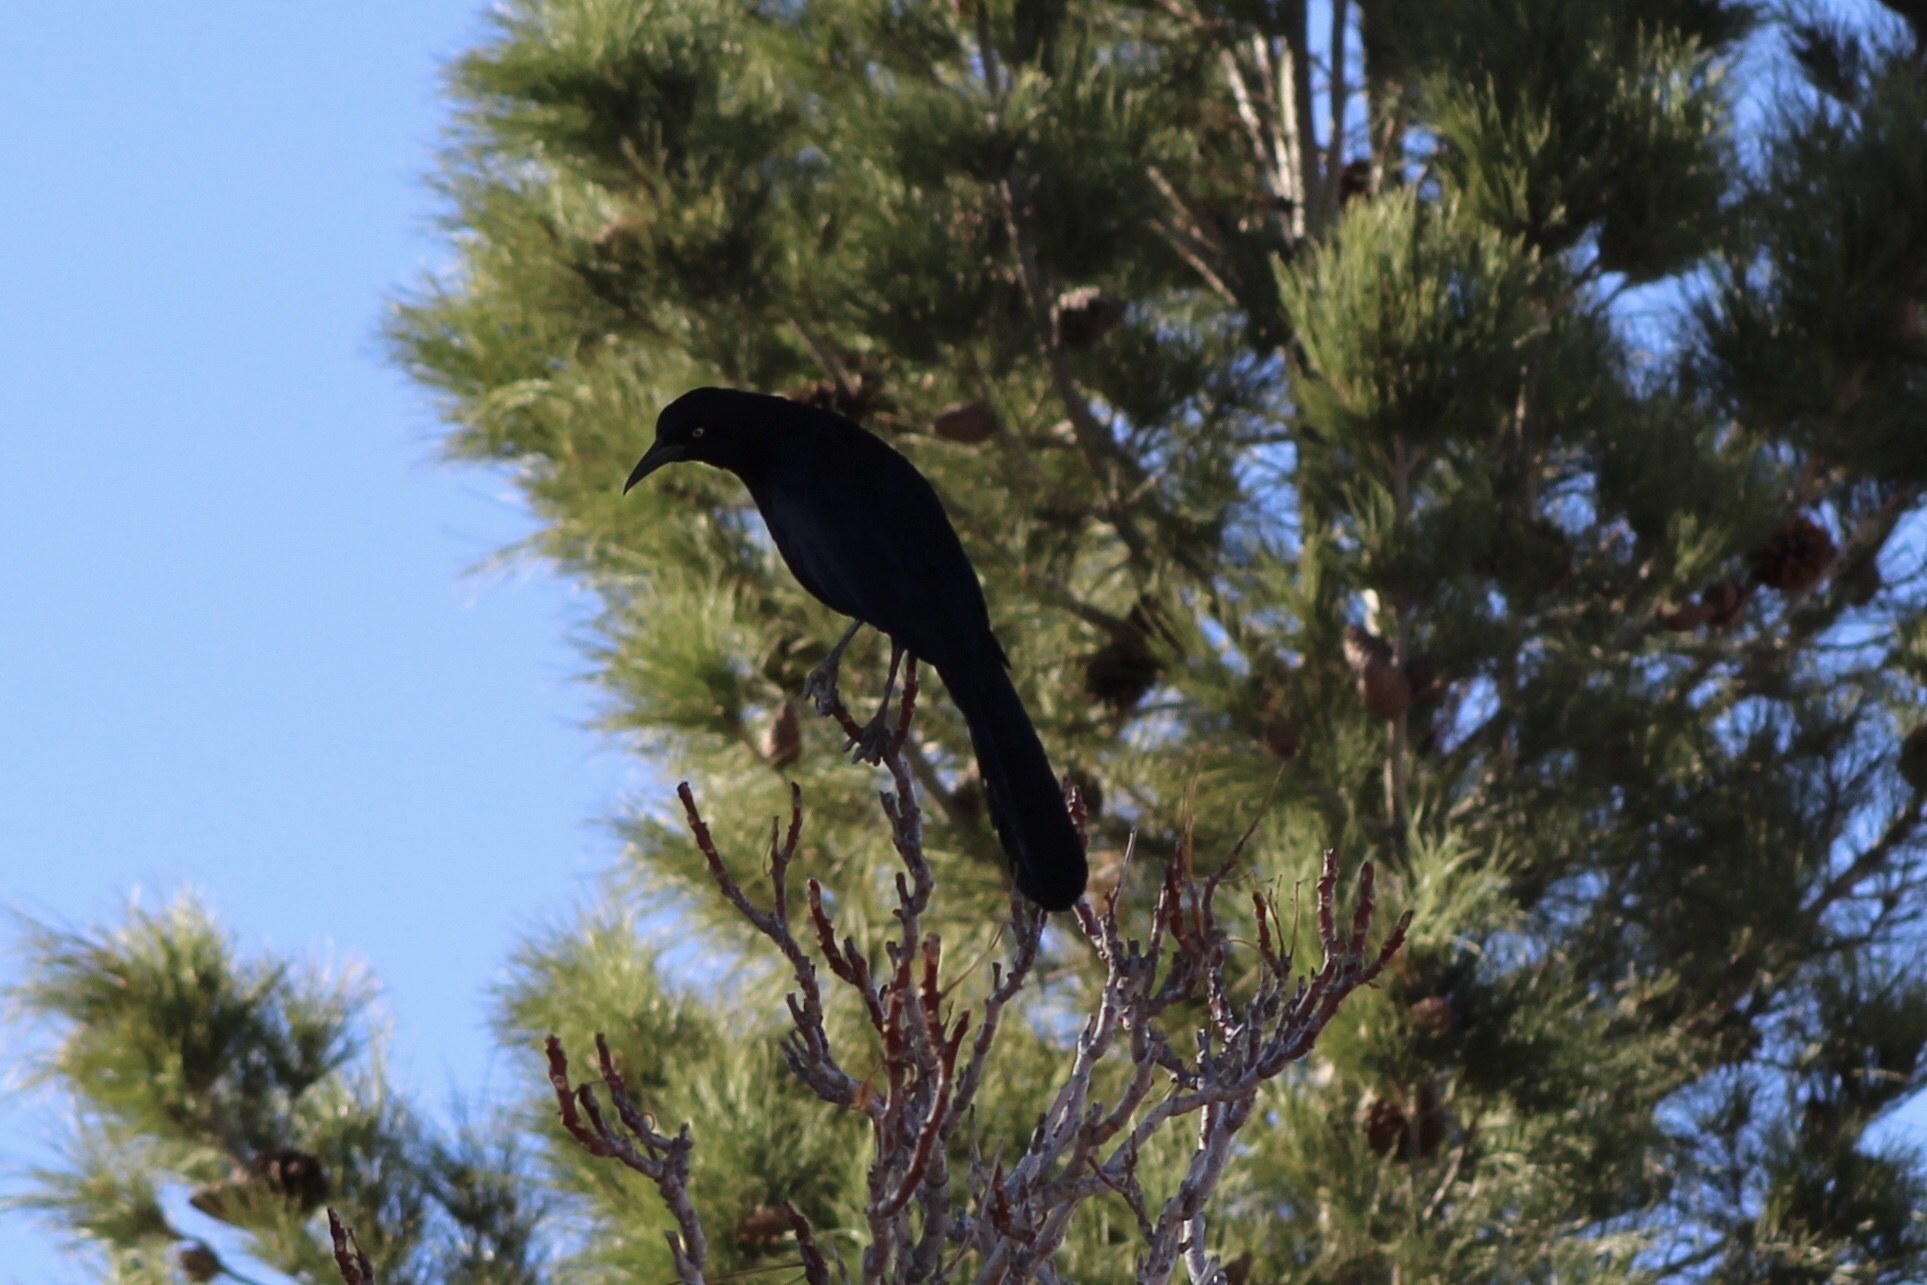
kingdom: Animalia
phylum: Chordata
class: Aves
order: Passeriformes
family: Icteridae
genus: Quiscalus
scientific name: Quiscalus mexicanus
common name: Great-tailed grackle
